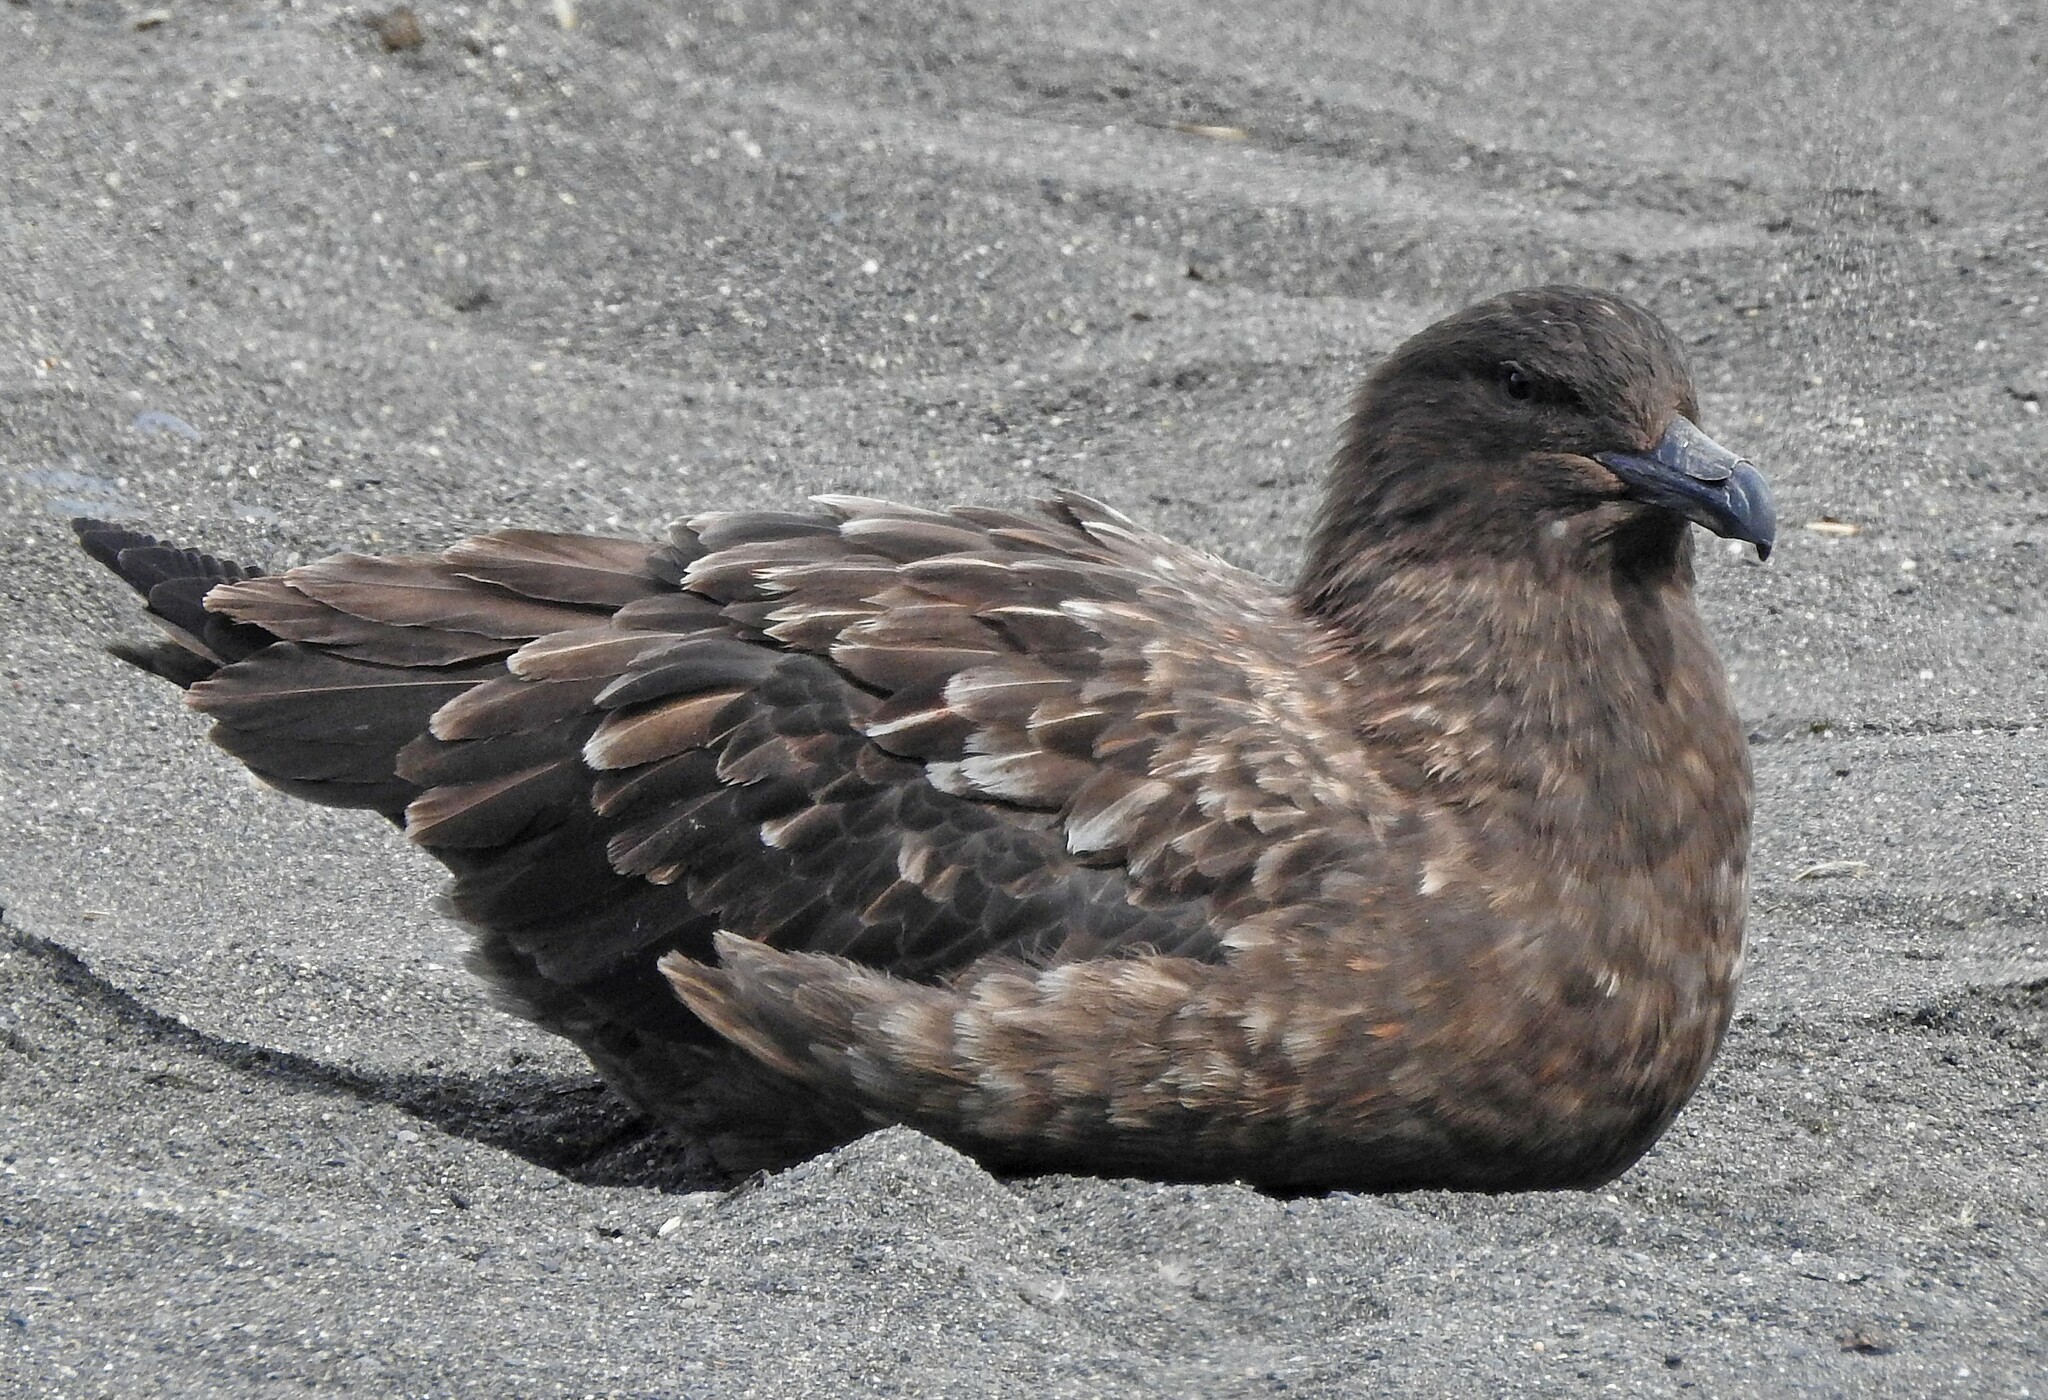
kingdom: Animalia
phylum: Chordata
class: Aves
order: Charadriiformes
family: Stercorariidae
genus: Stercorarius
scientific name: Stercorarius antarcticus
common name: Brown skua
